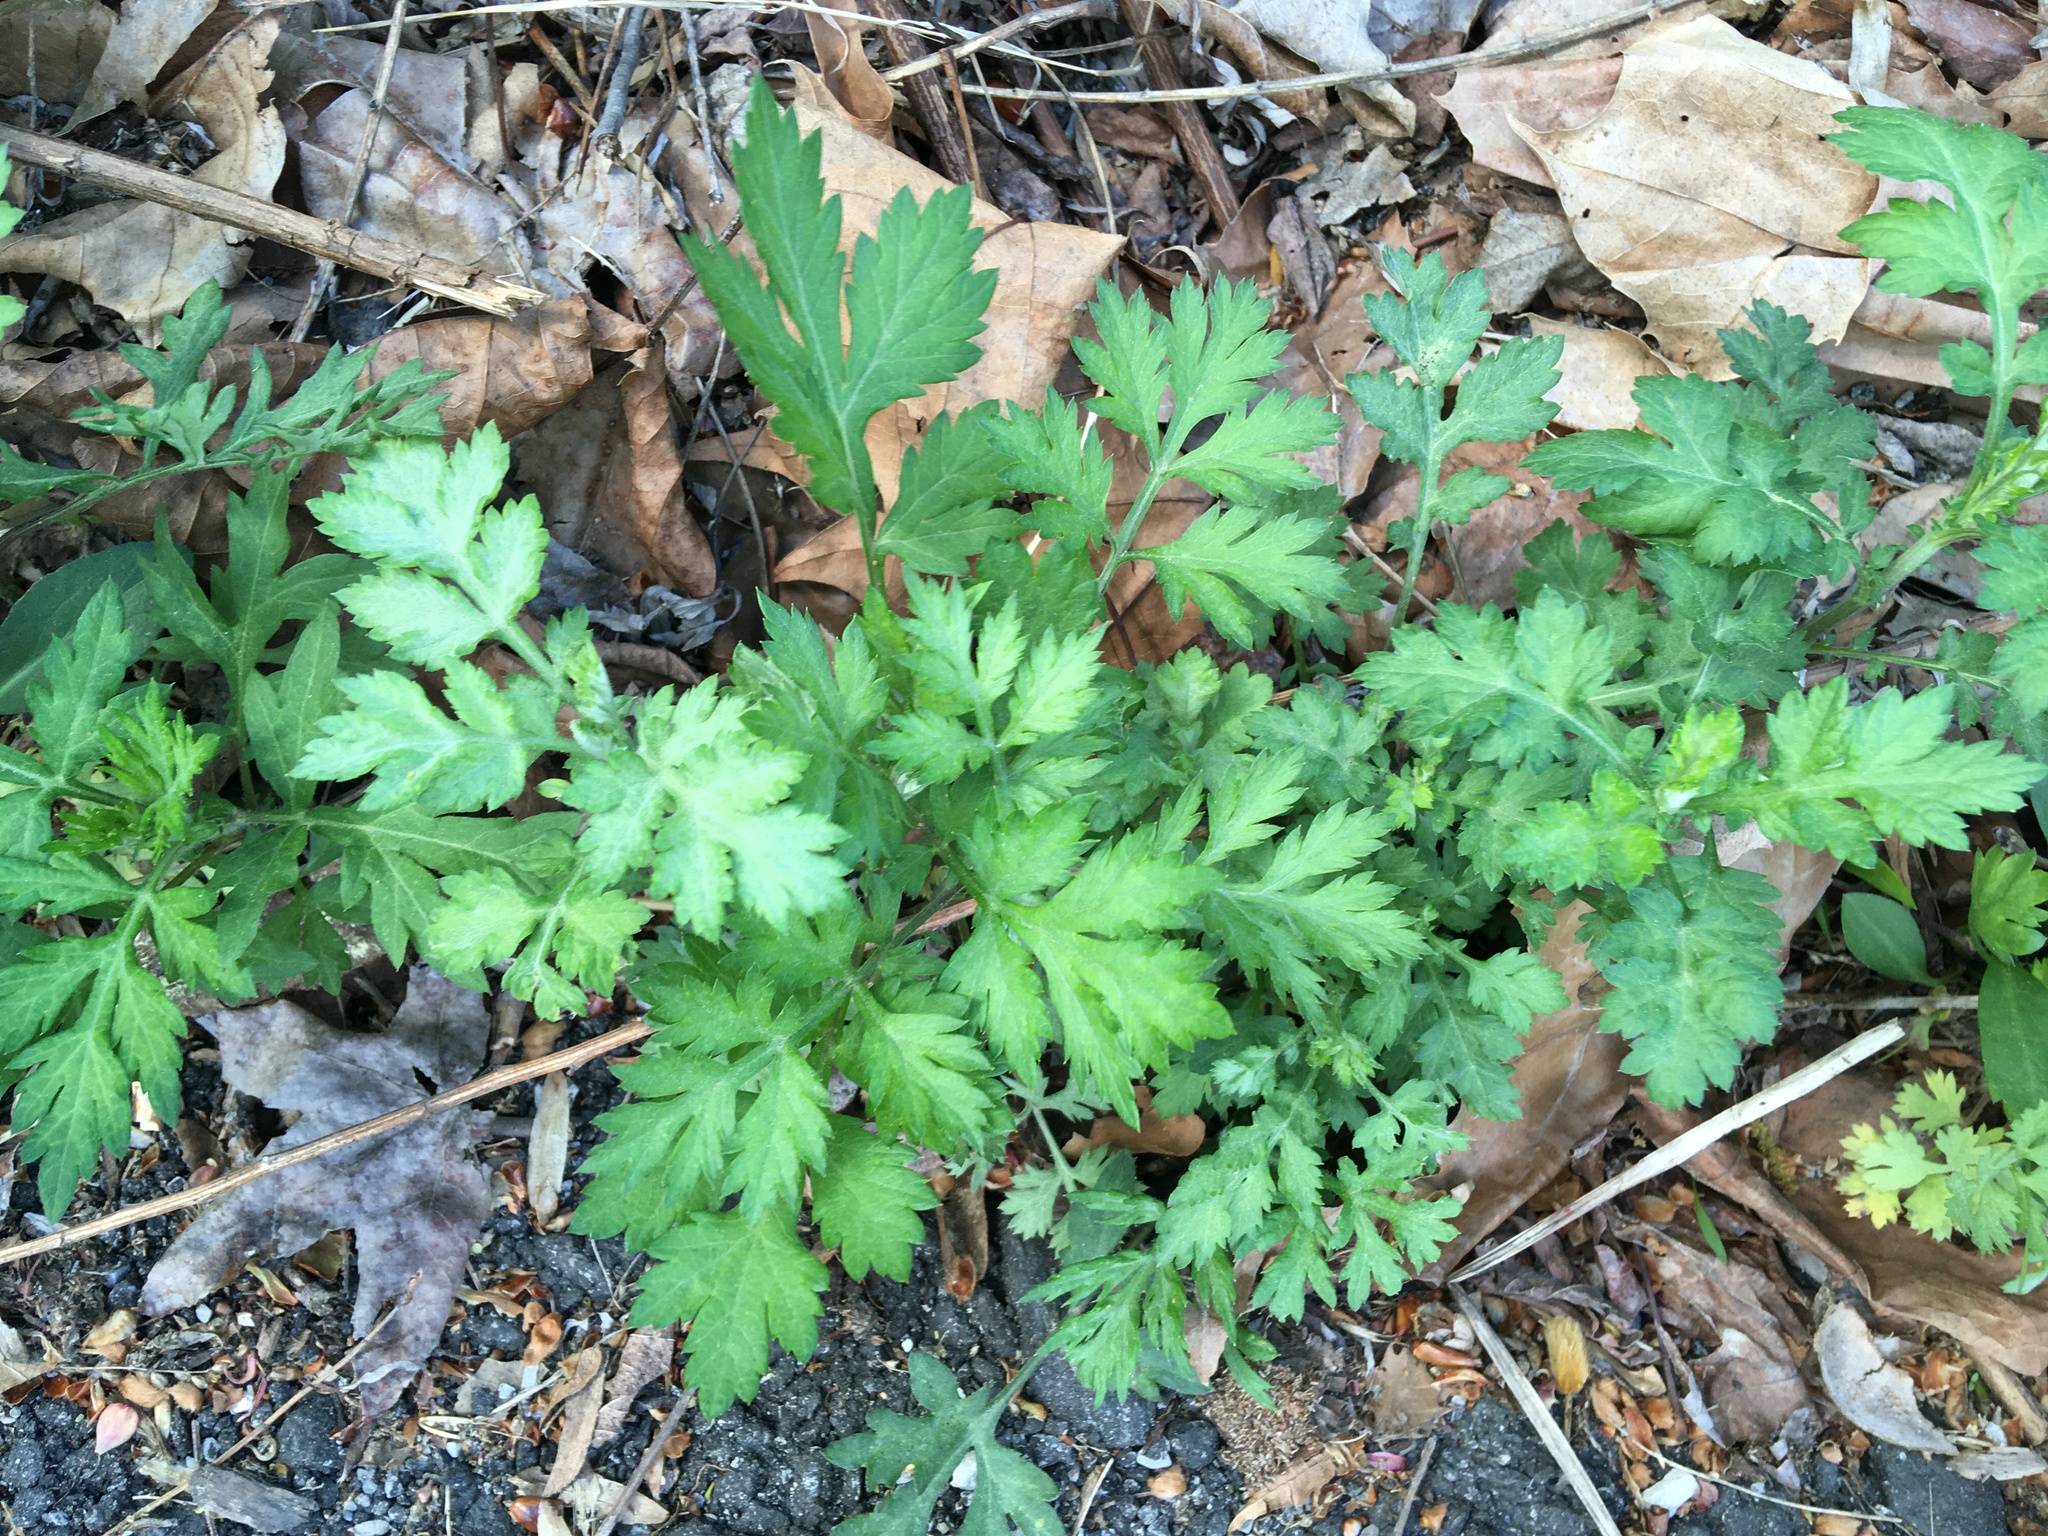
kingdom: Plantae
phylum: Tracheophyta
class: Magnoliopsida
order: Asterales
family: Asteraceae
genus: Artemisia
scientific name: Artemisia vulgaris
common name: Mugwort
